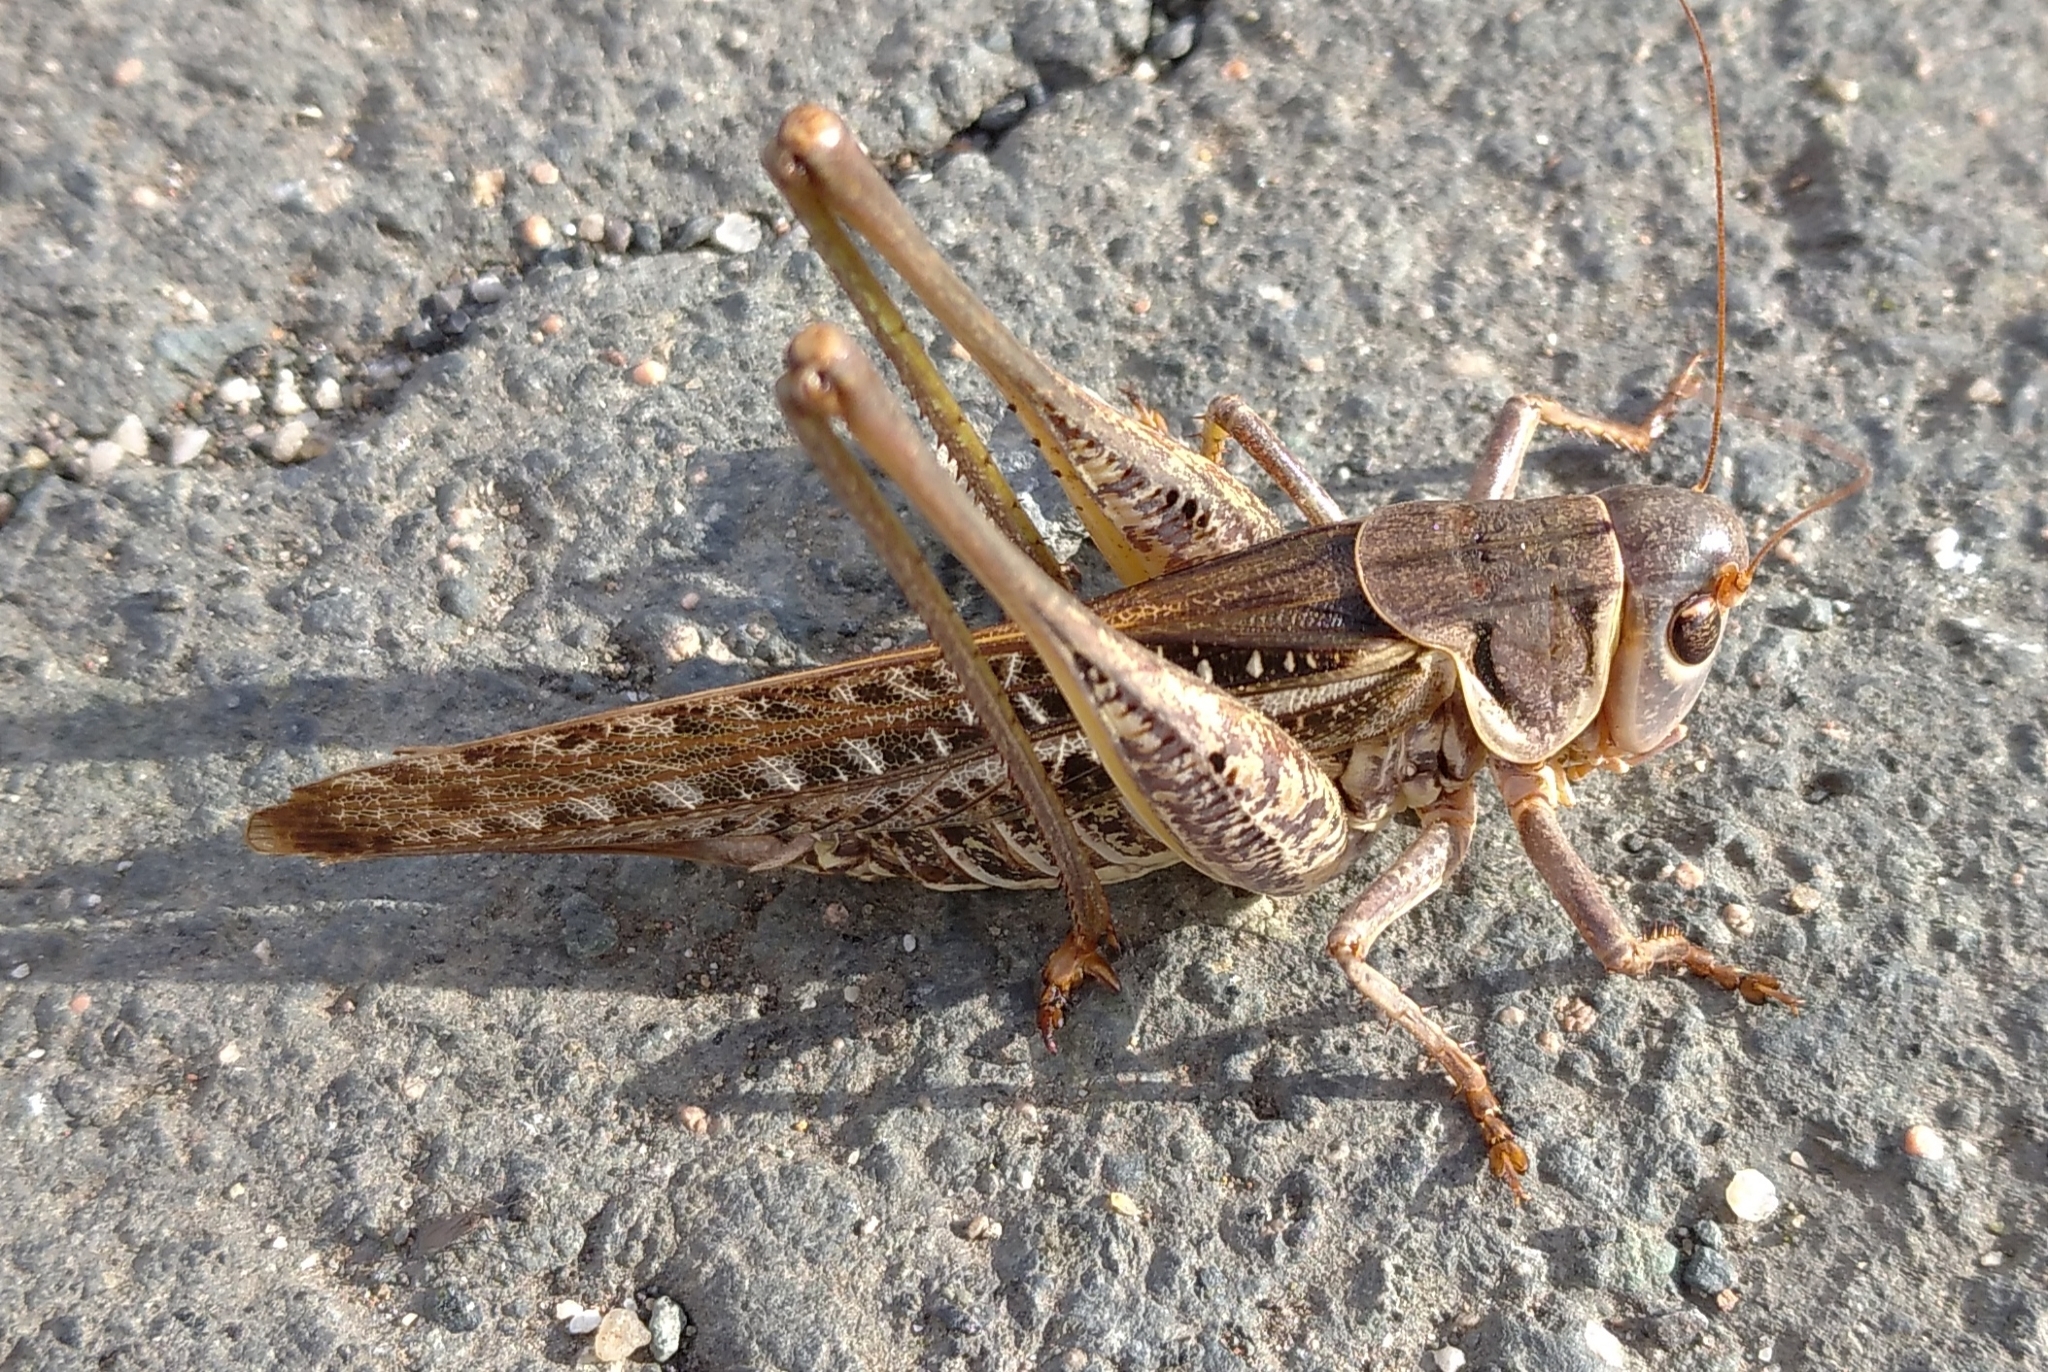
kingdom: Animalia
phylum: Arthropoda
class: Insecta
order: Orthoptera
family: Tettigoniidae
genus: Decticus
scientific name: Decticus albifrons
